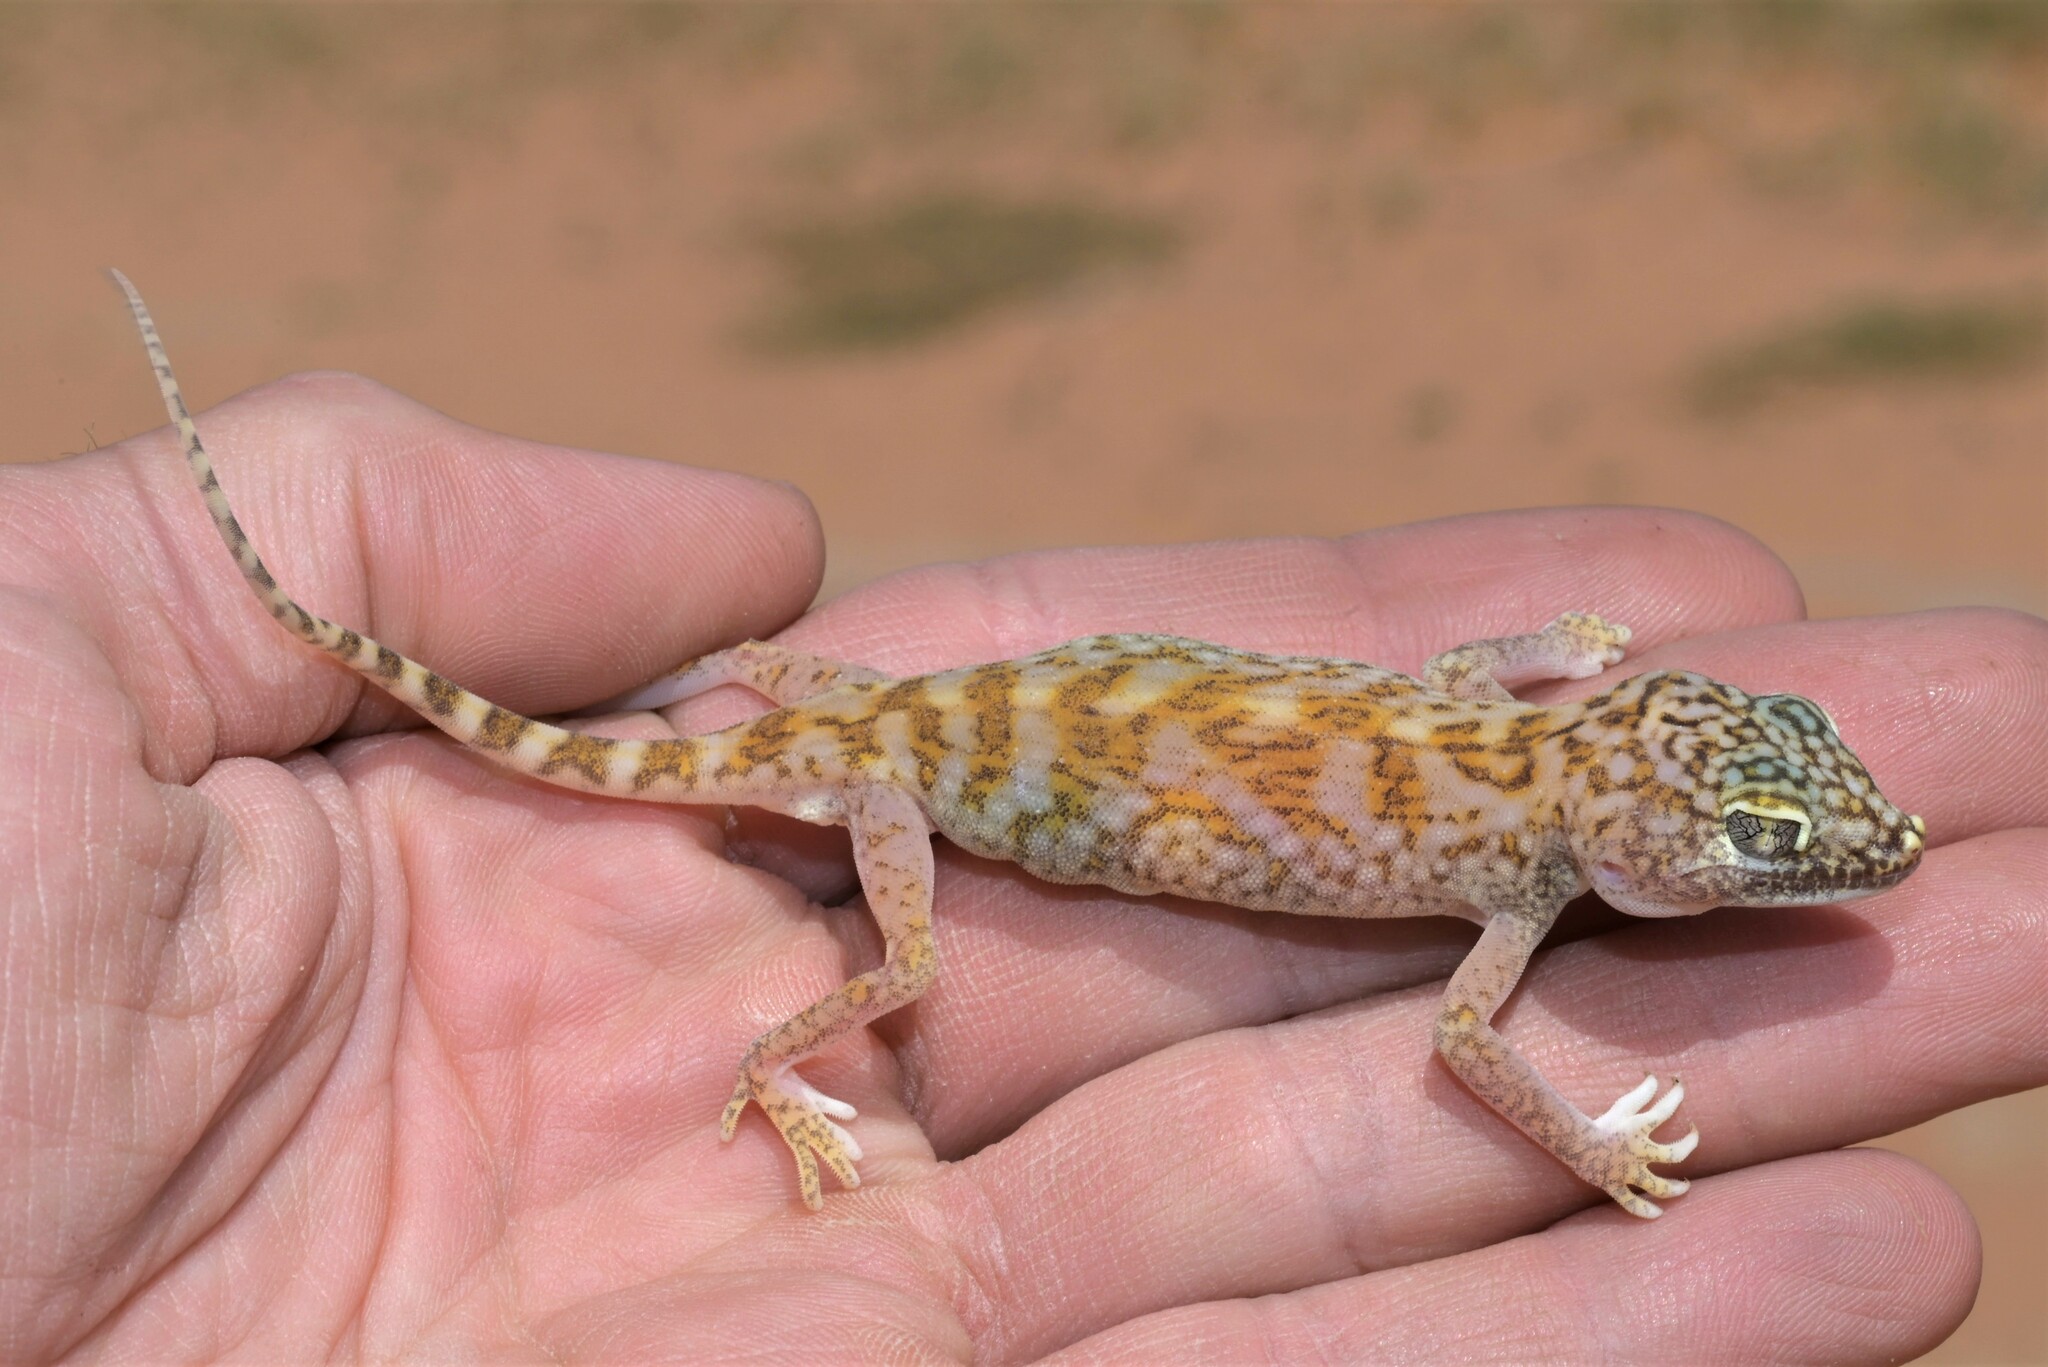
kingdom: Animalia
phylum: Chordata
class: Squamata
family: Gekkonidae
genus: Stenodactylus
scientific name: Stenodactylus doriae
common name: Dune sand gecko
